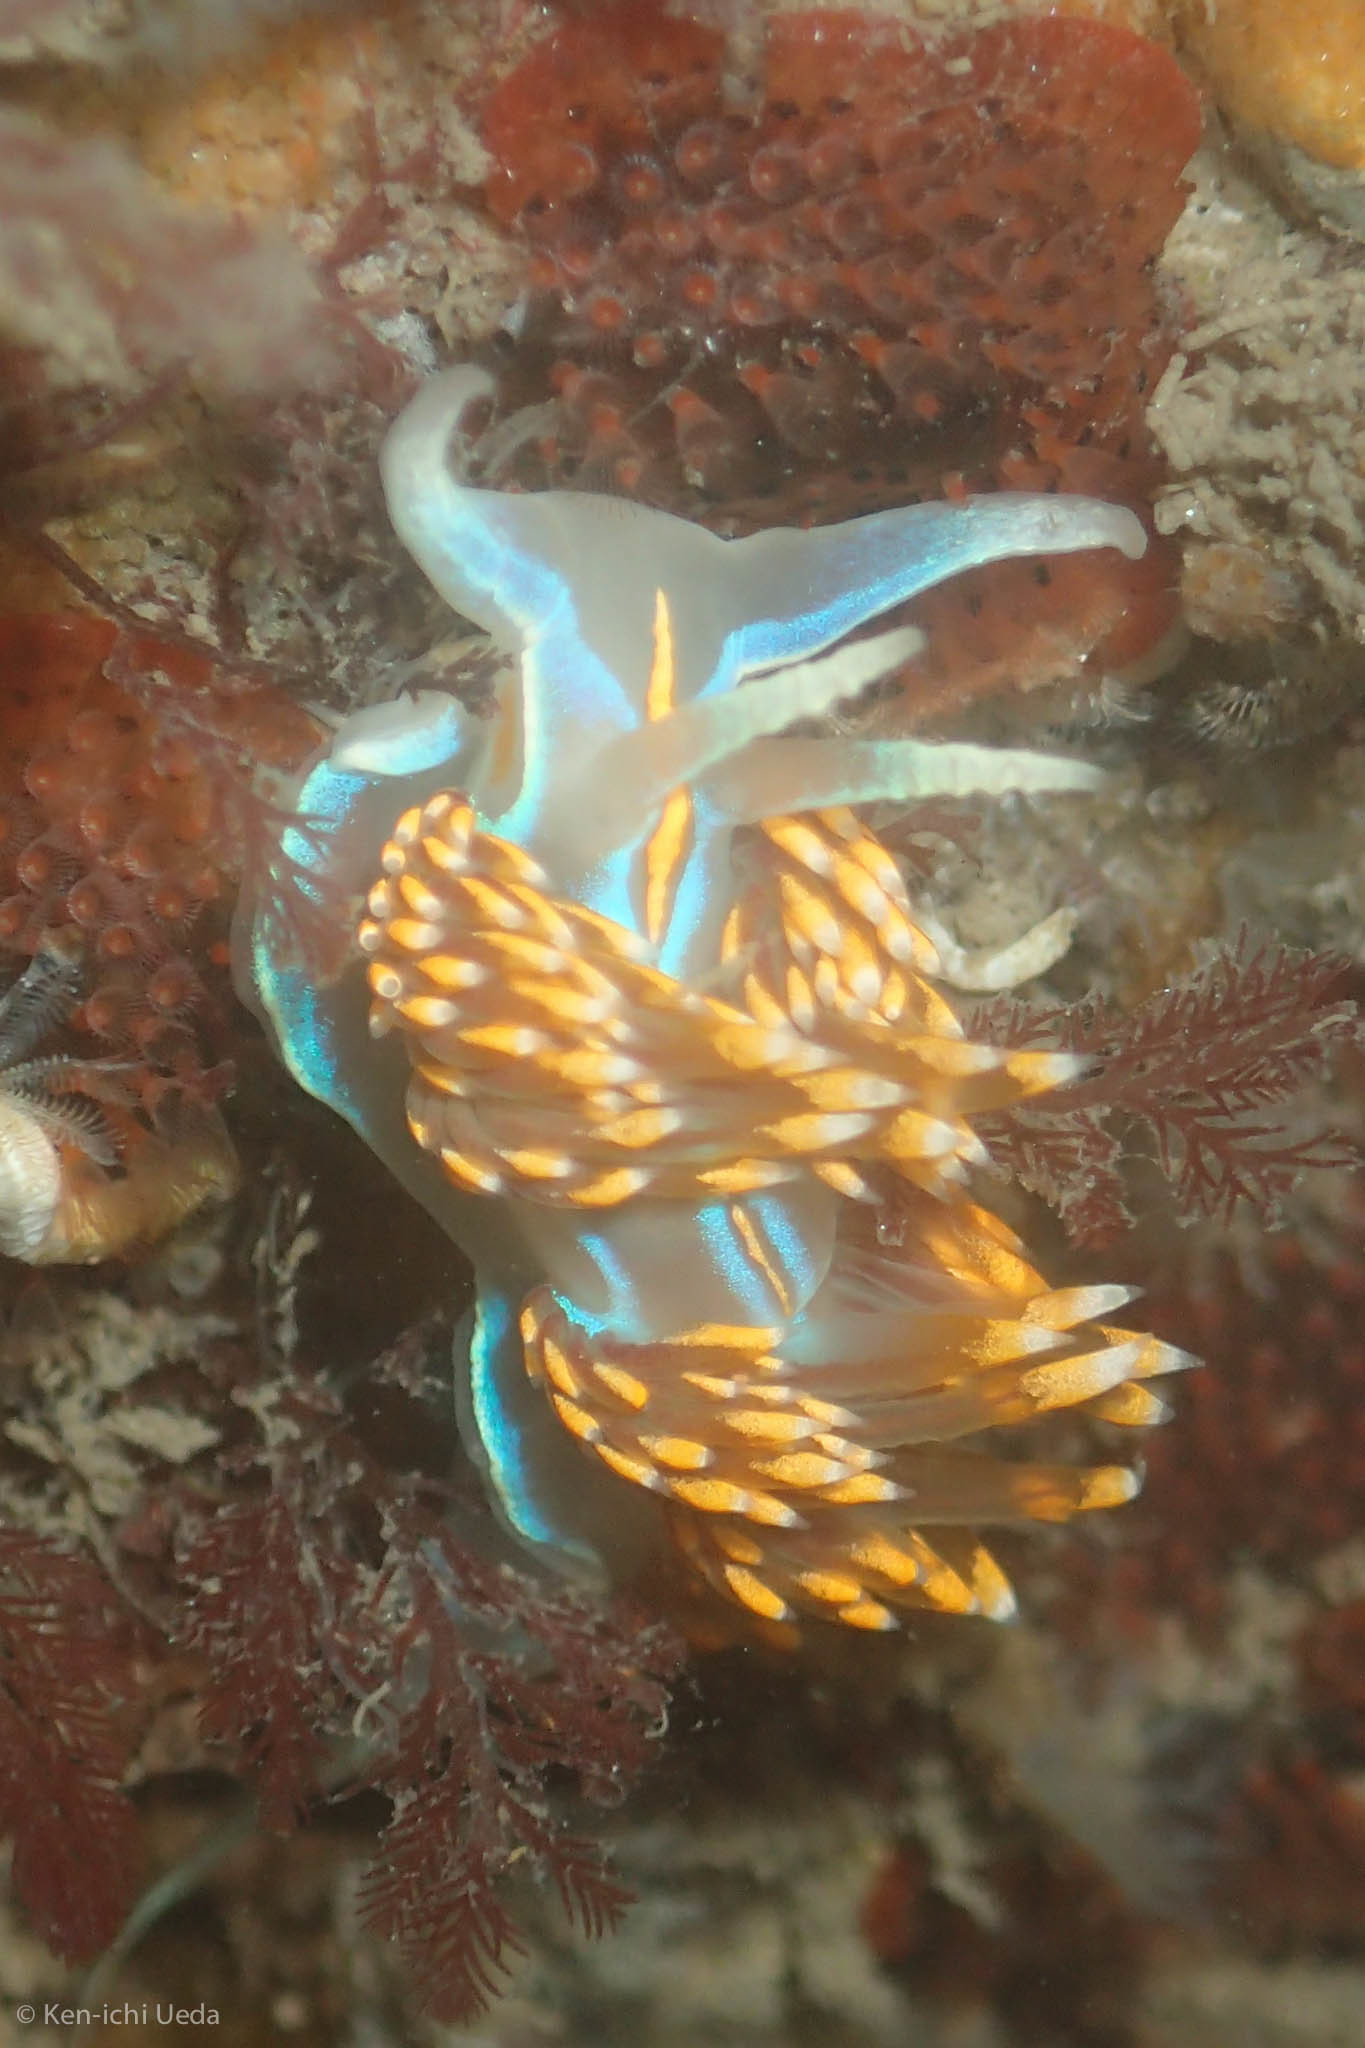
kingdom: Animalia
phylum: Mollusca
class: Gastropoda
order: Nudibranchia
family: Myrrhinidae
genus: Hermissenda
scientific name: Hermissenda opalescens
